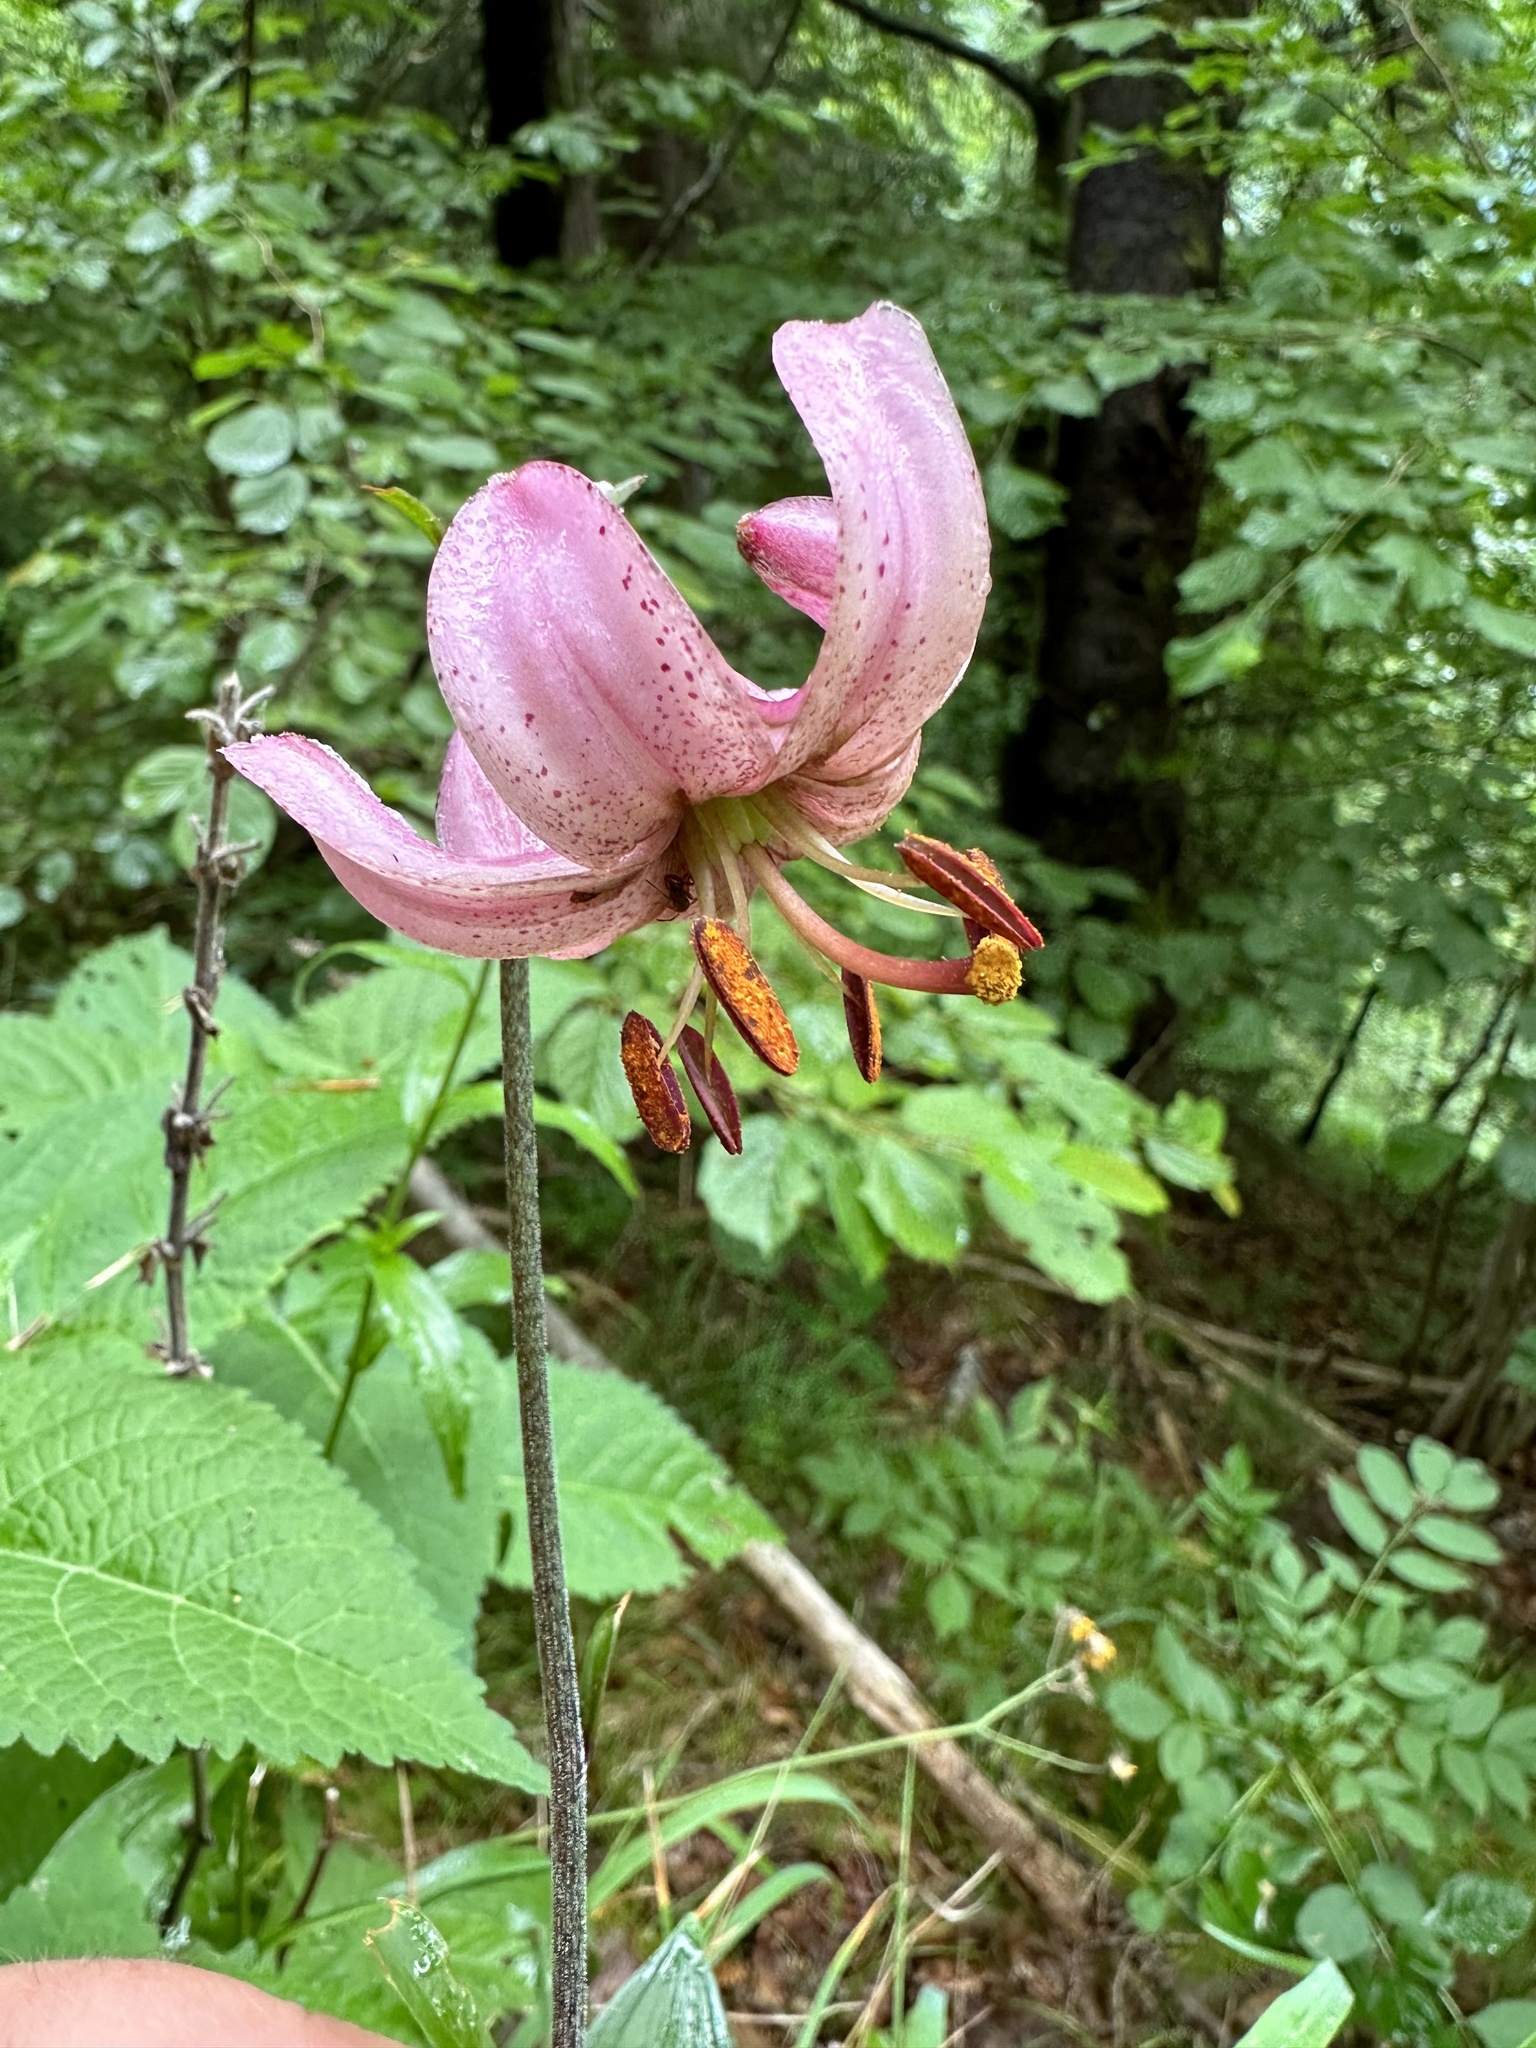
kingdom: Plantae
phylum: Tracheophyta
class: Liliopsida
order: Liliales
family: Liliaceae
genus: Lilium
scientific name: Lilium martagon
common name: Martagon lily
